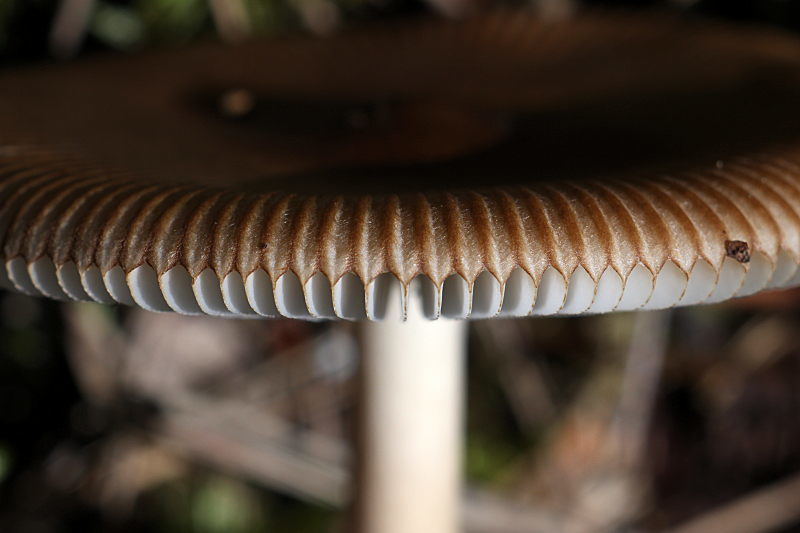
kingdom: Fungi
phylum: Basidiomycota
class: Agaricomycetes
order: Agaricales
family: Amanitaceae
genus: Amanita
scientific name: Amanita fulva
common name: Tawny grisette
